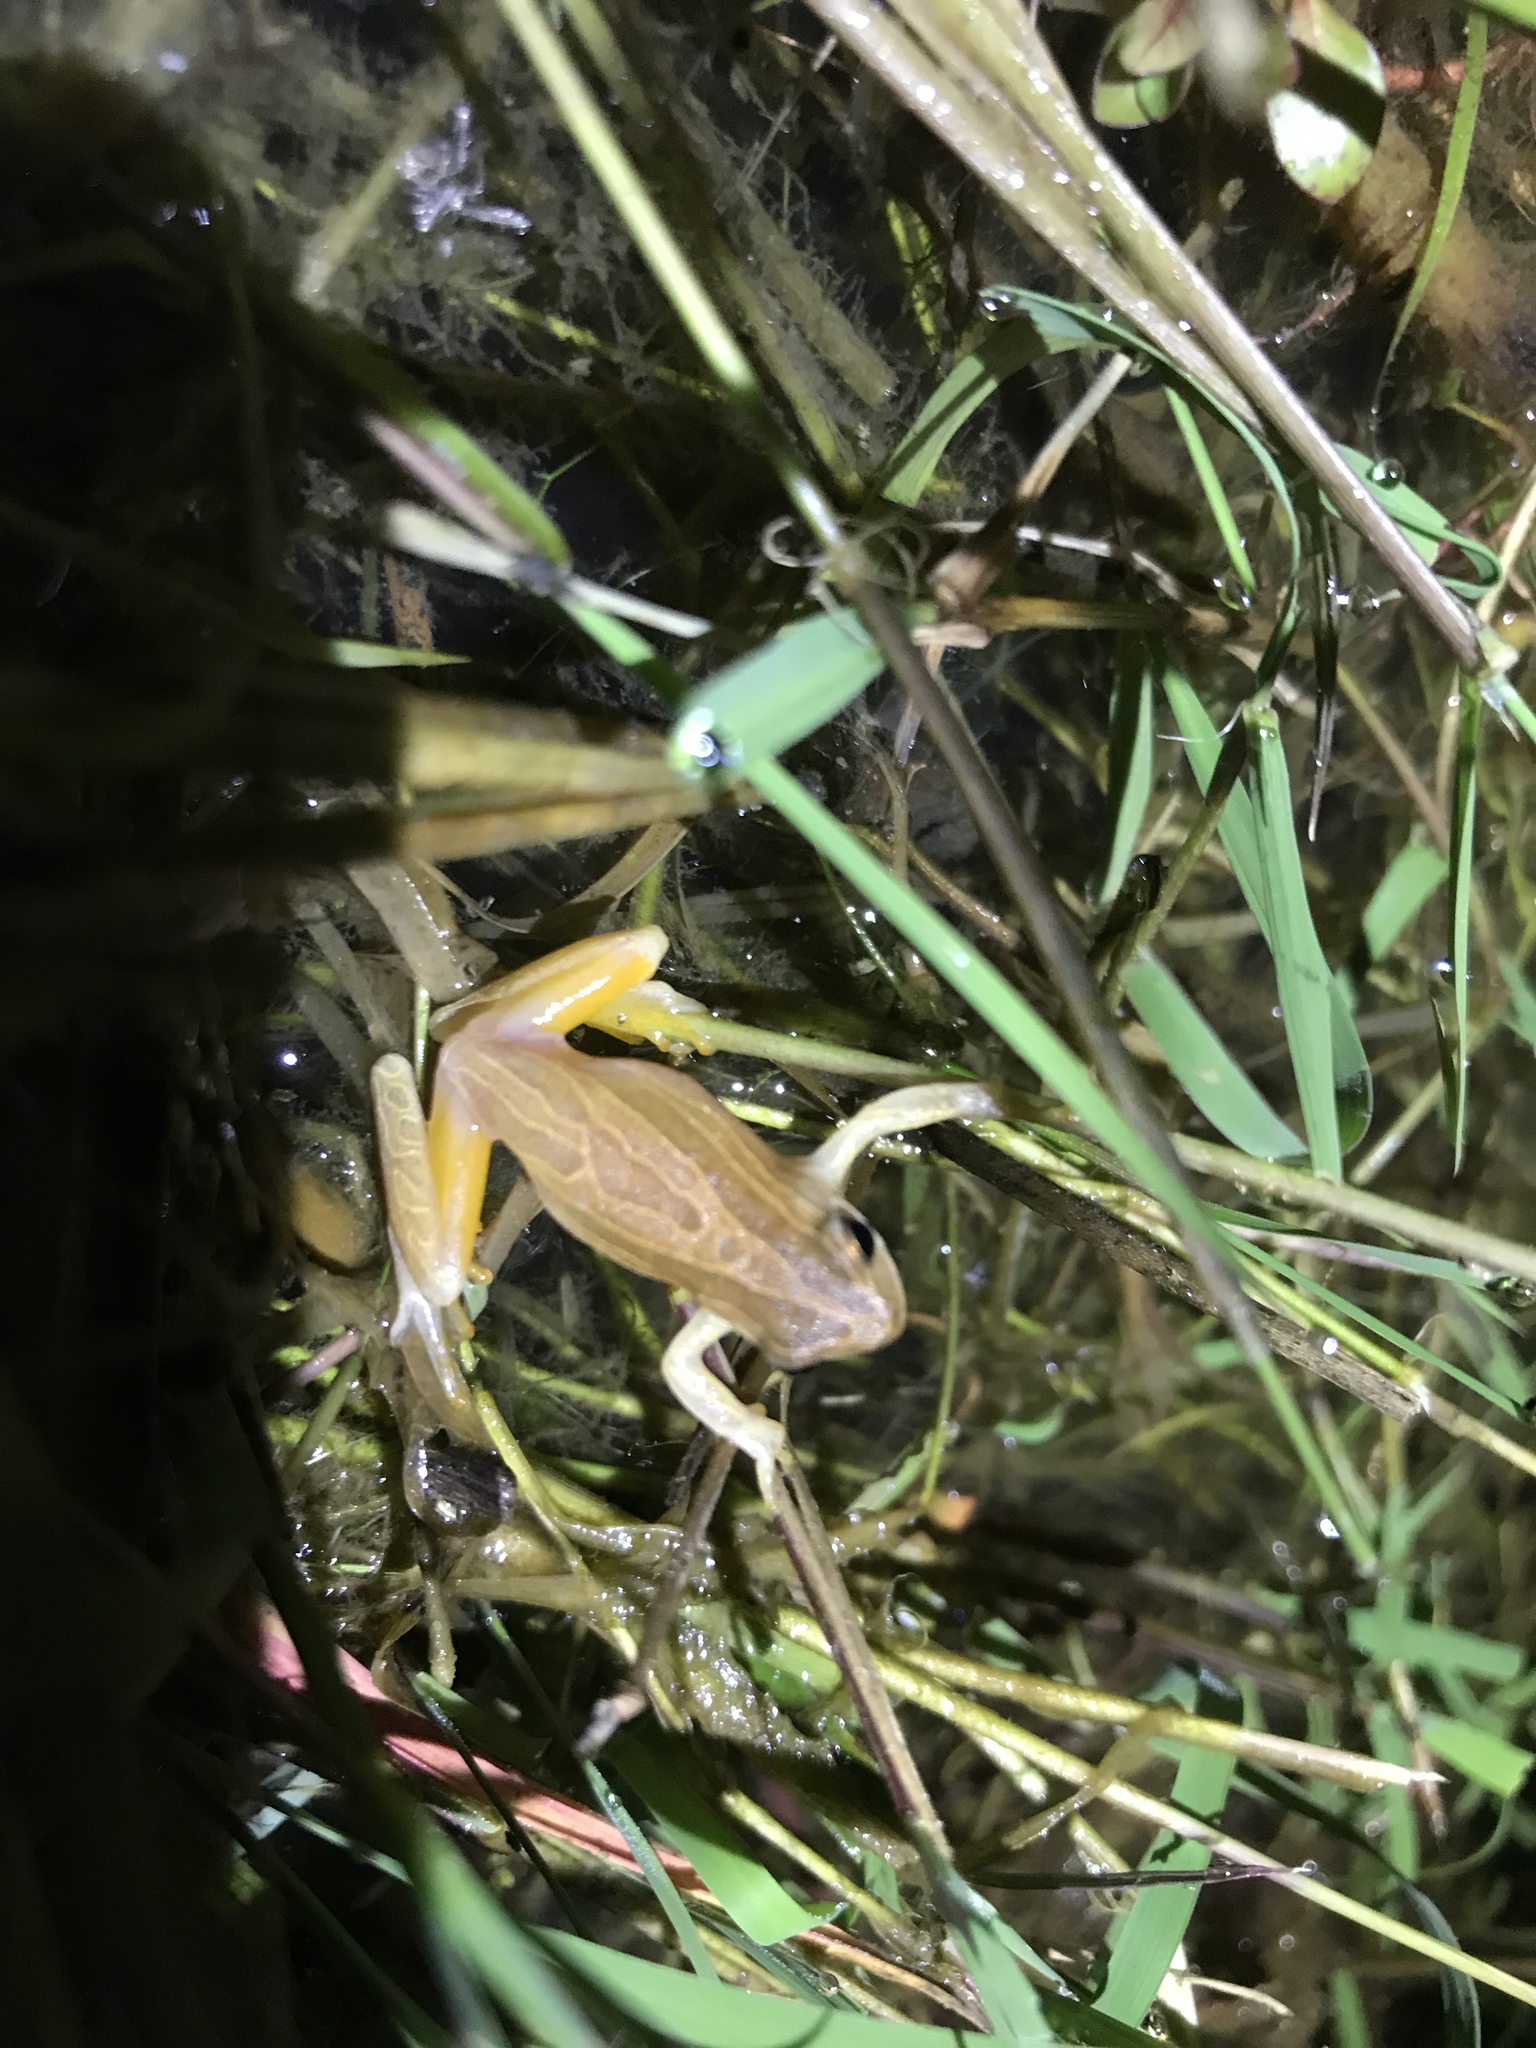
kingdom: Animalia
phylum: Chordata
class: Amphibia
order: Anura
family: Hylidae
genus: Dendropsophus
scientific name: Dendropsophus minutus
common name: Lesser treefrog
